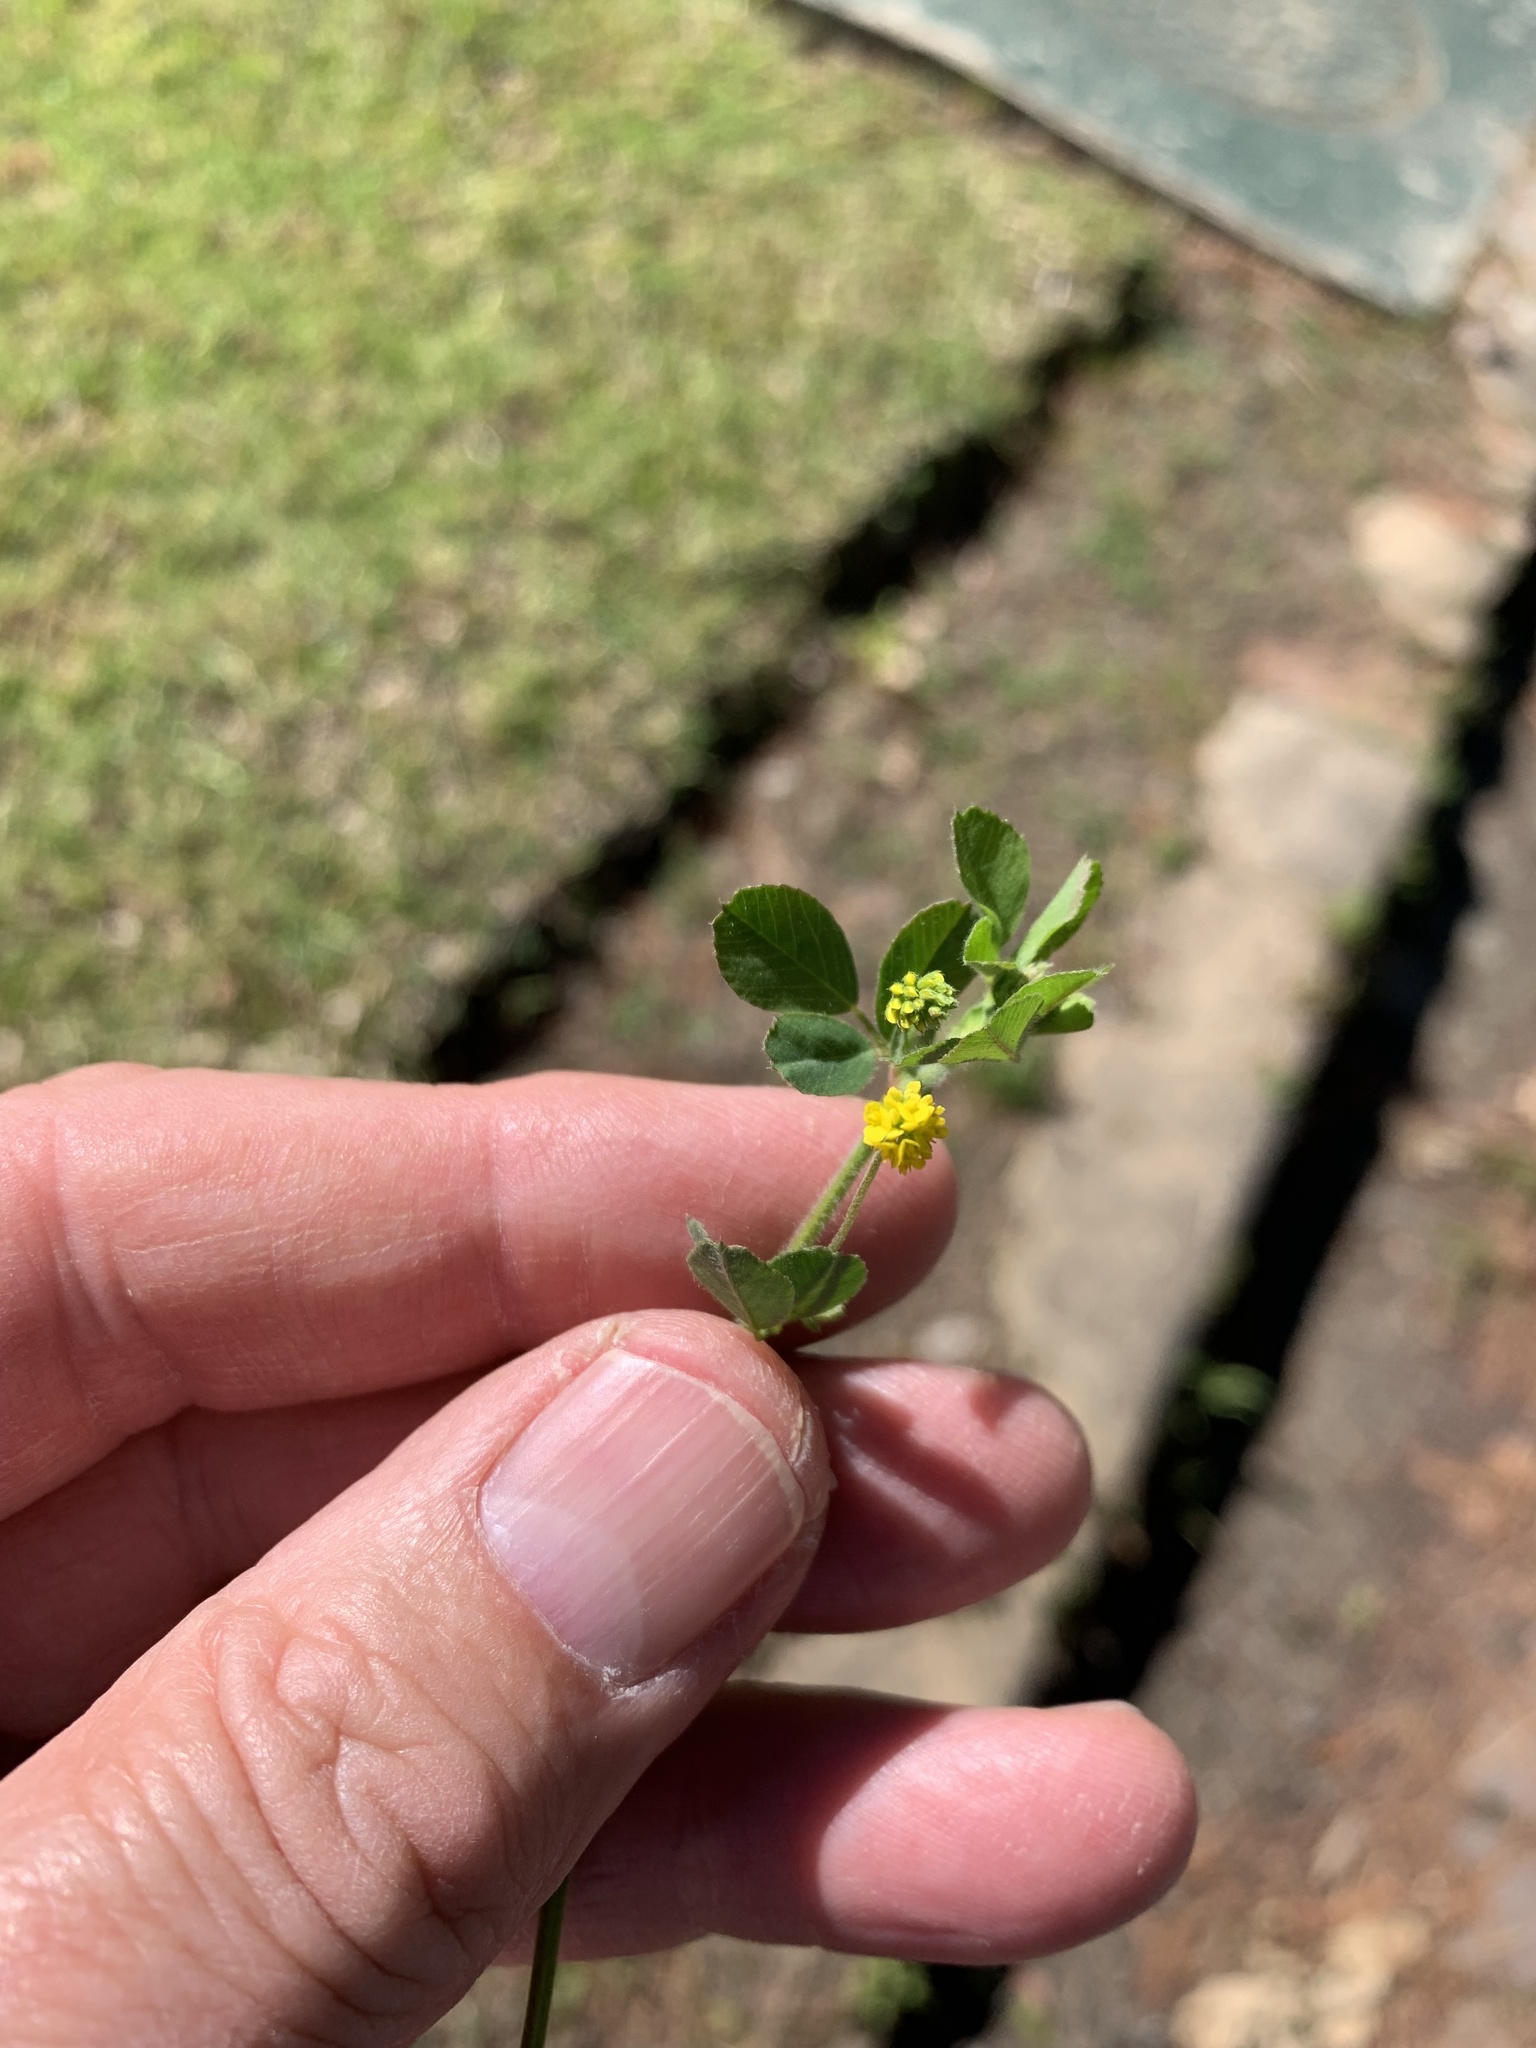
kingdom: Plantae
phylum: Tracheophyta
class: Magnoliopsida
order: Fabales
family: Fabaceae
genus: Medicago
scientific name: Medicago lupulina
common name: Black medick
